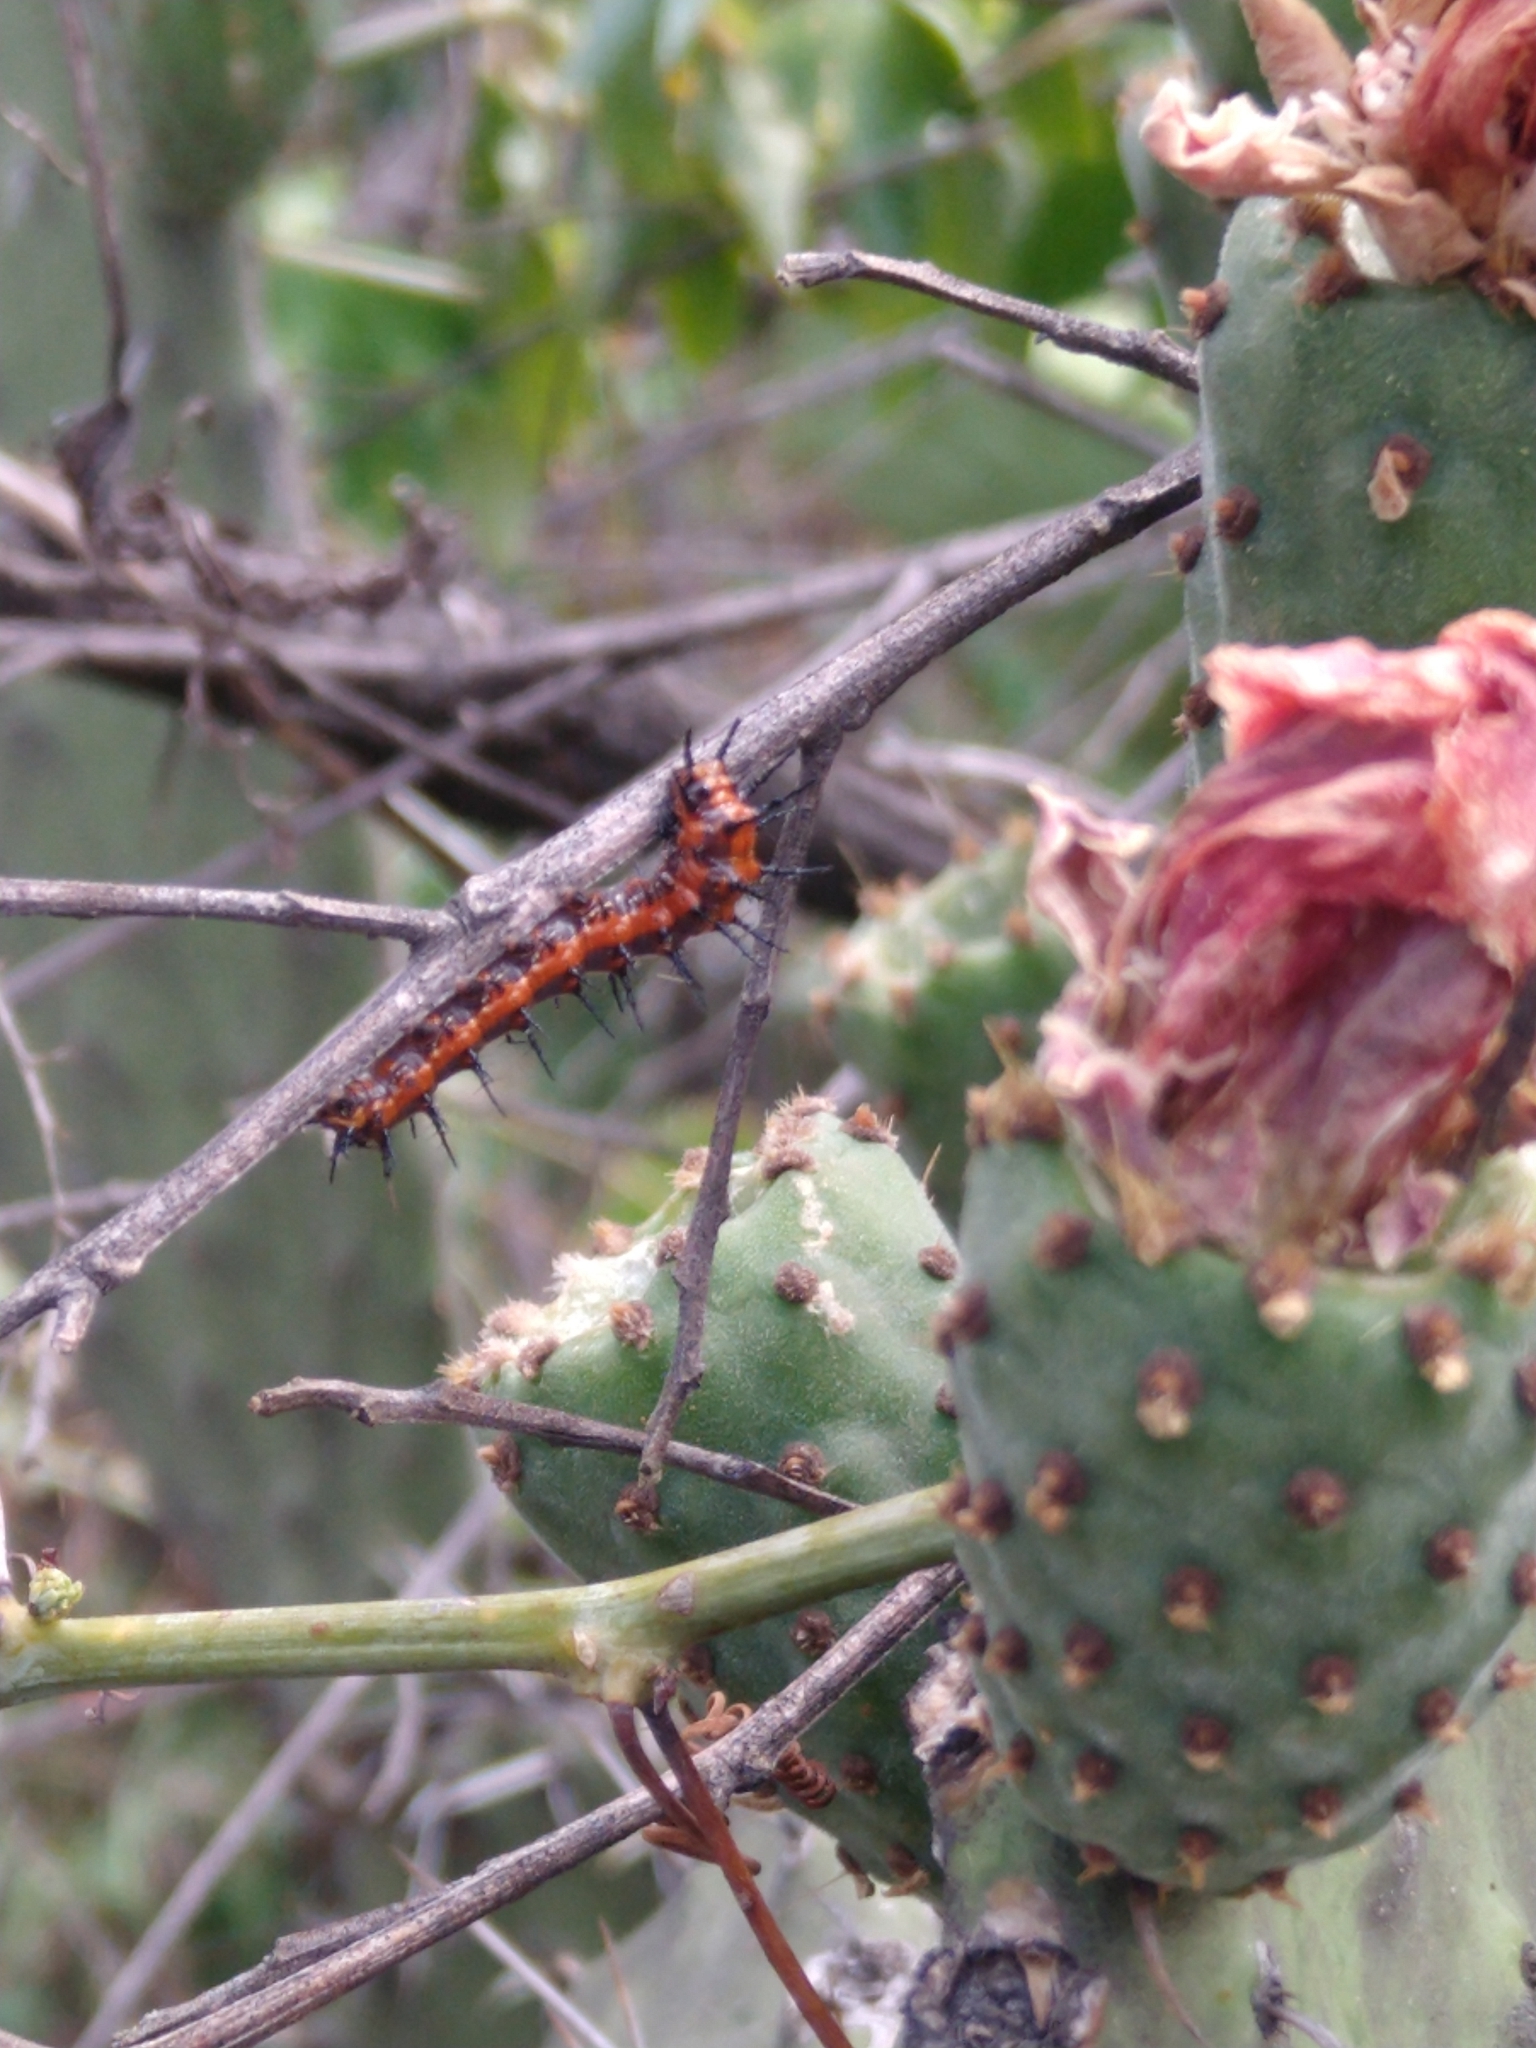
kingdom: Animalia
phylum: Arthropoda
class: Insecta
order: Lepidoptera
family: Nymphalidae
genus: Dione
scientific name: Dione vanillae
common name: Gulf fritillary
